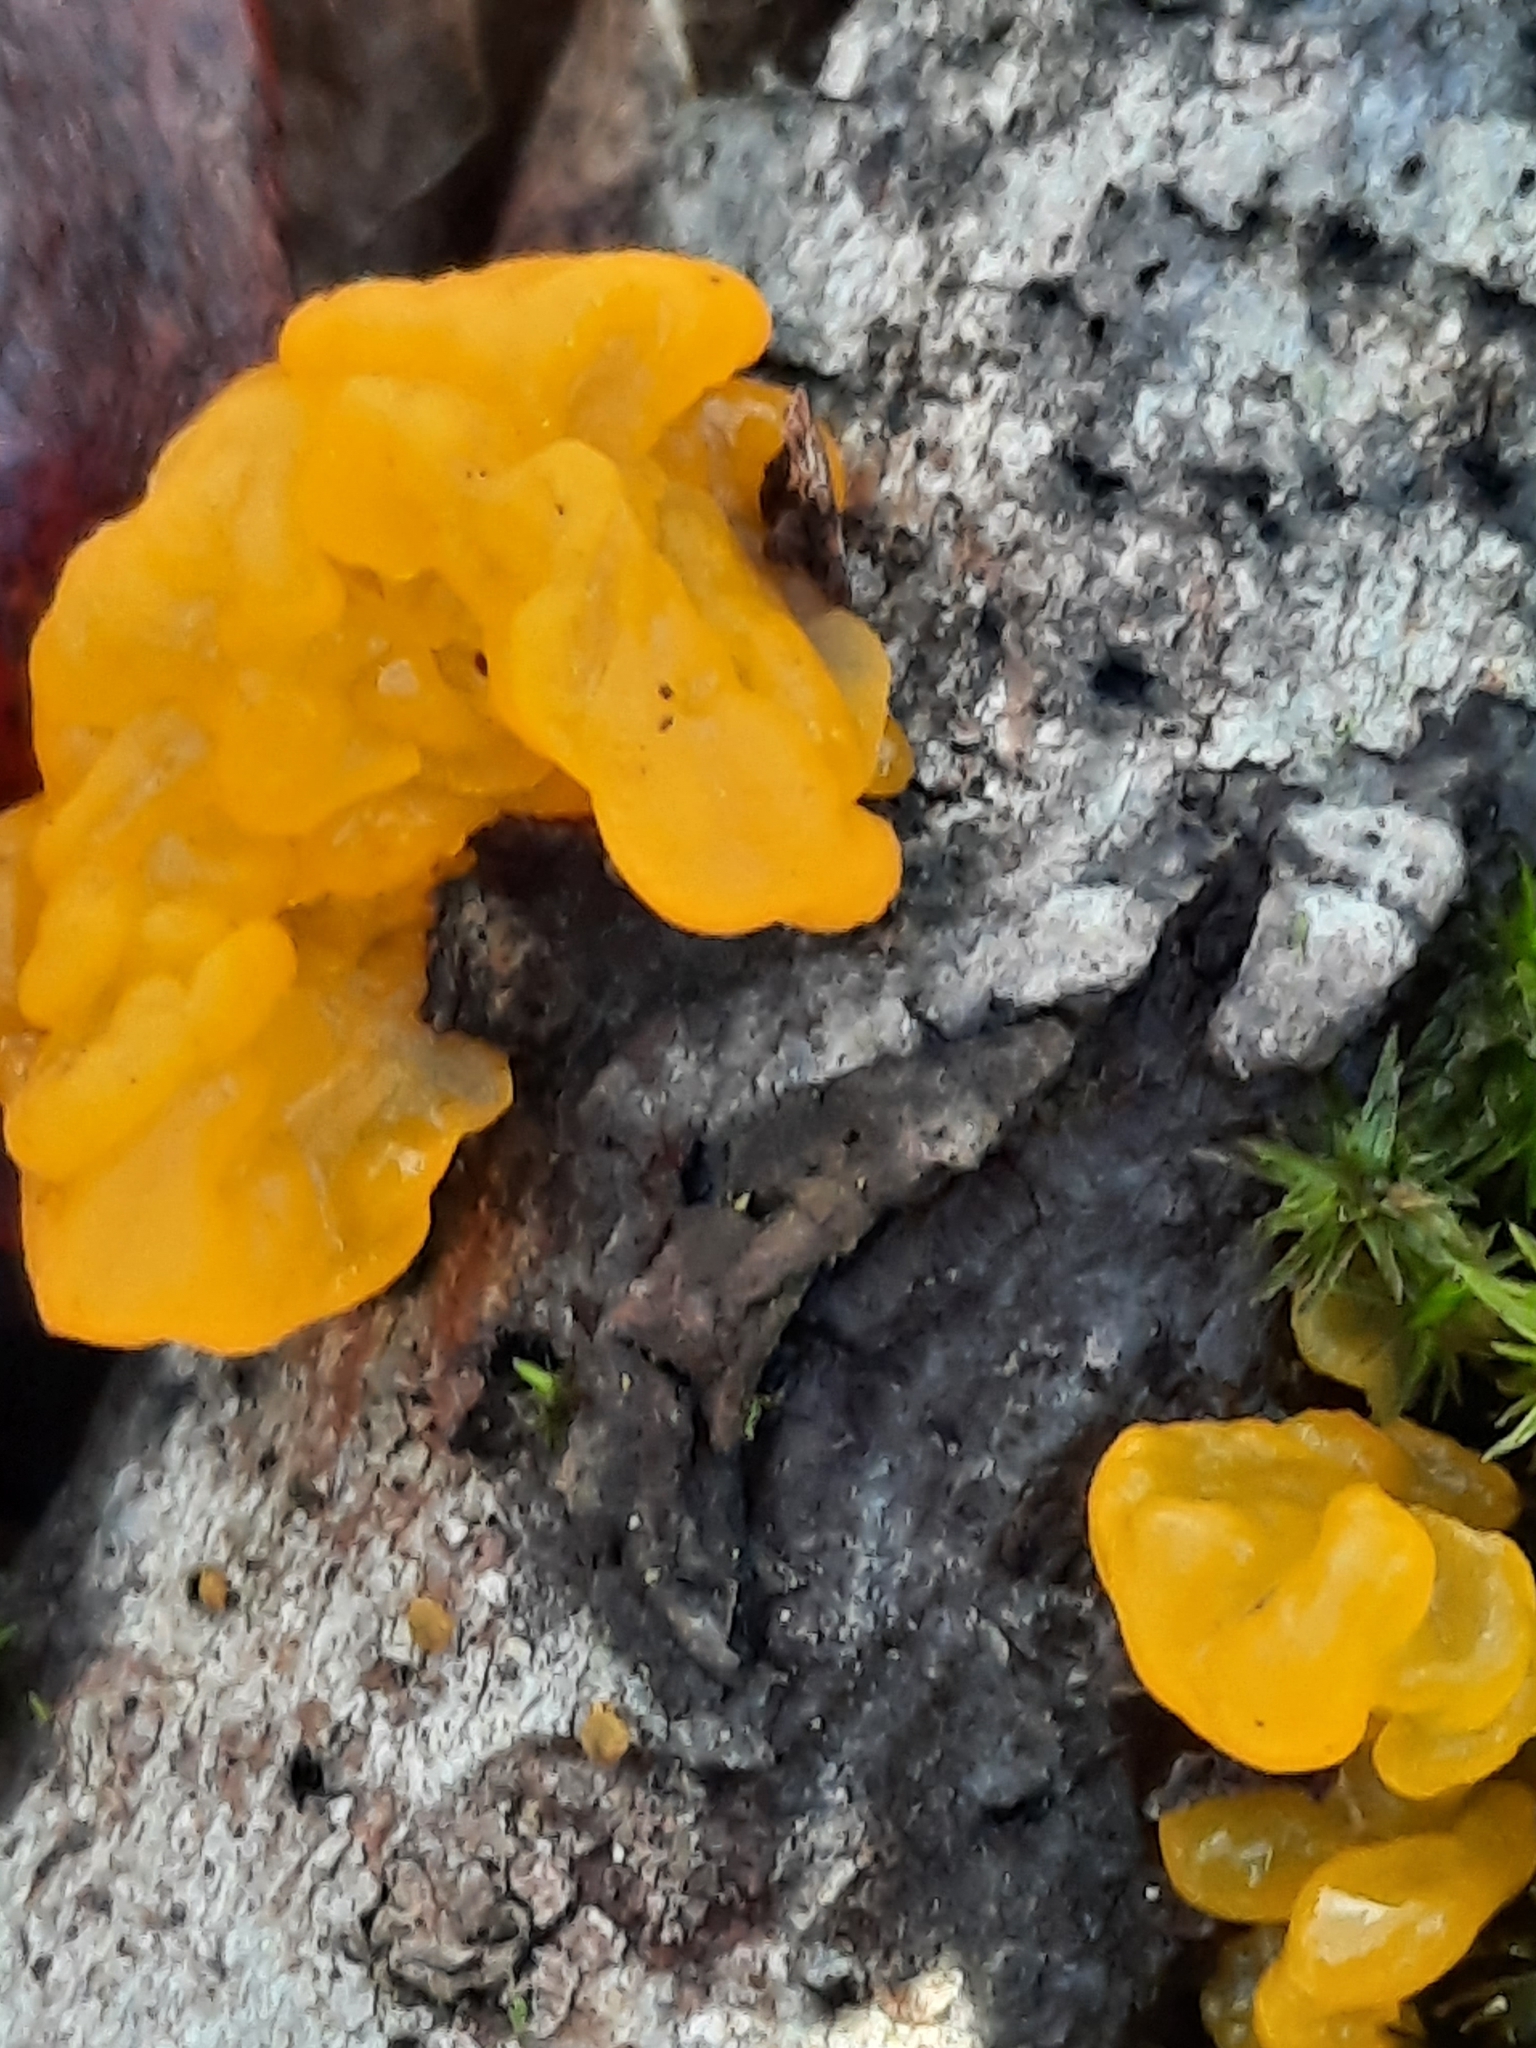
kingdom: Fungi
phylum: Basidiomycota
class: Tremellomycetes
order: Tremellales
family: Tremellaceae
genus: Tremella
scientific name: Tremella mesenterica
